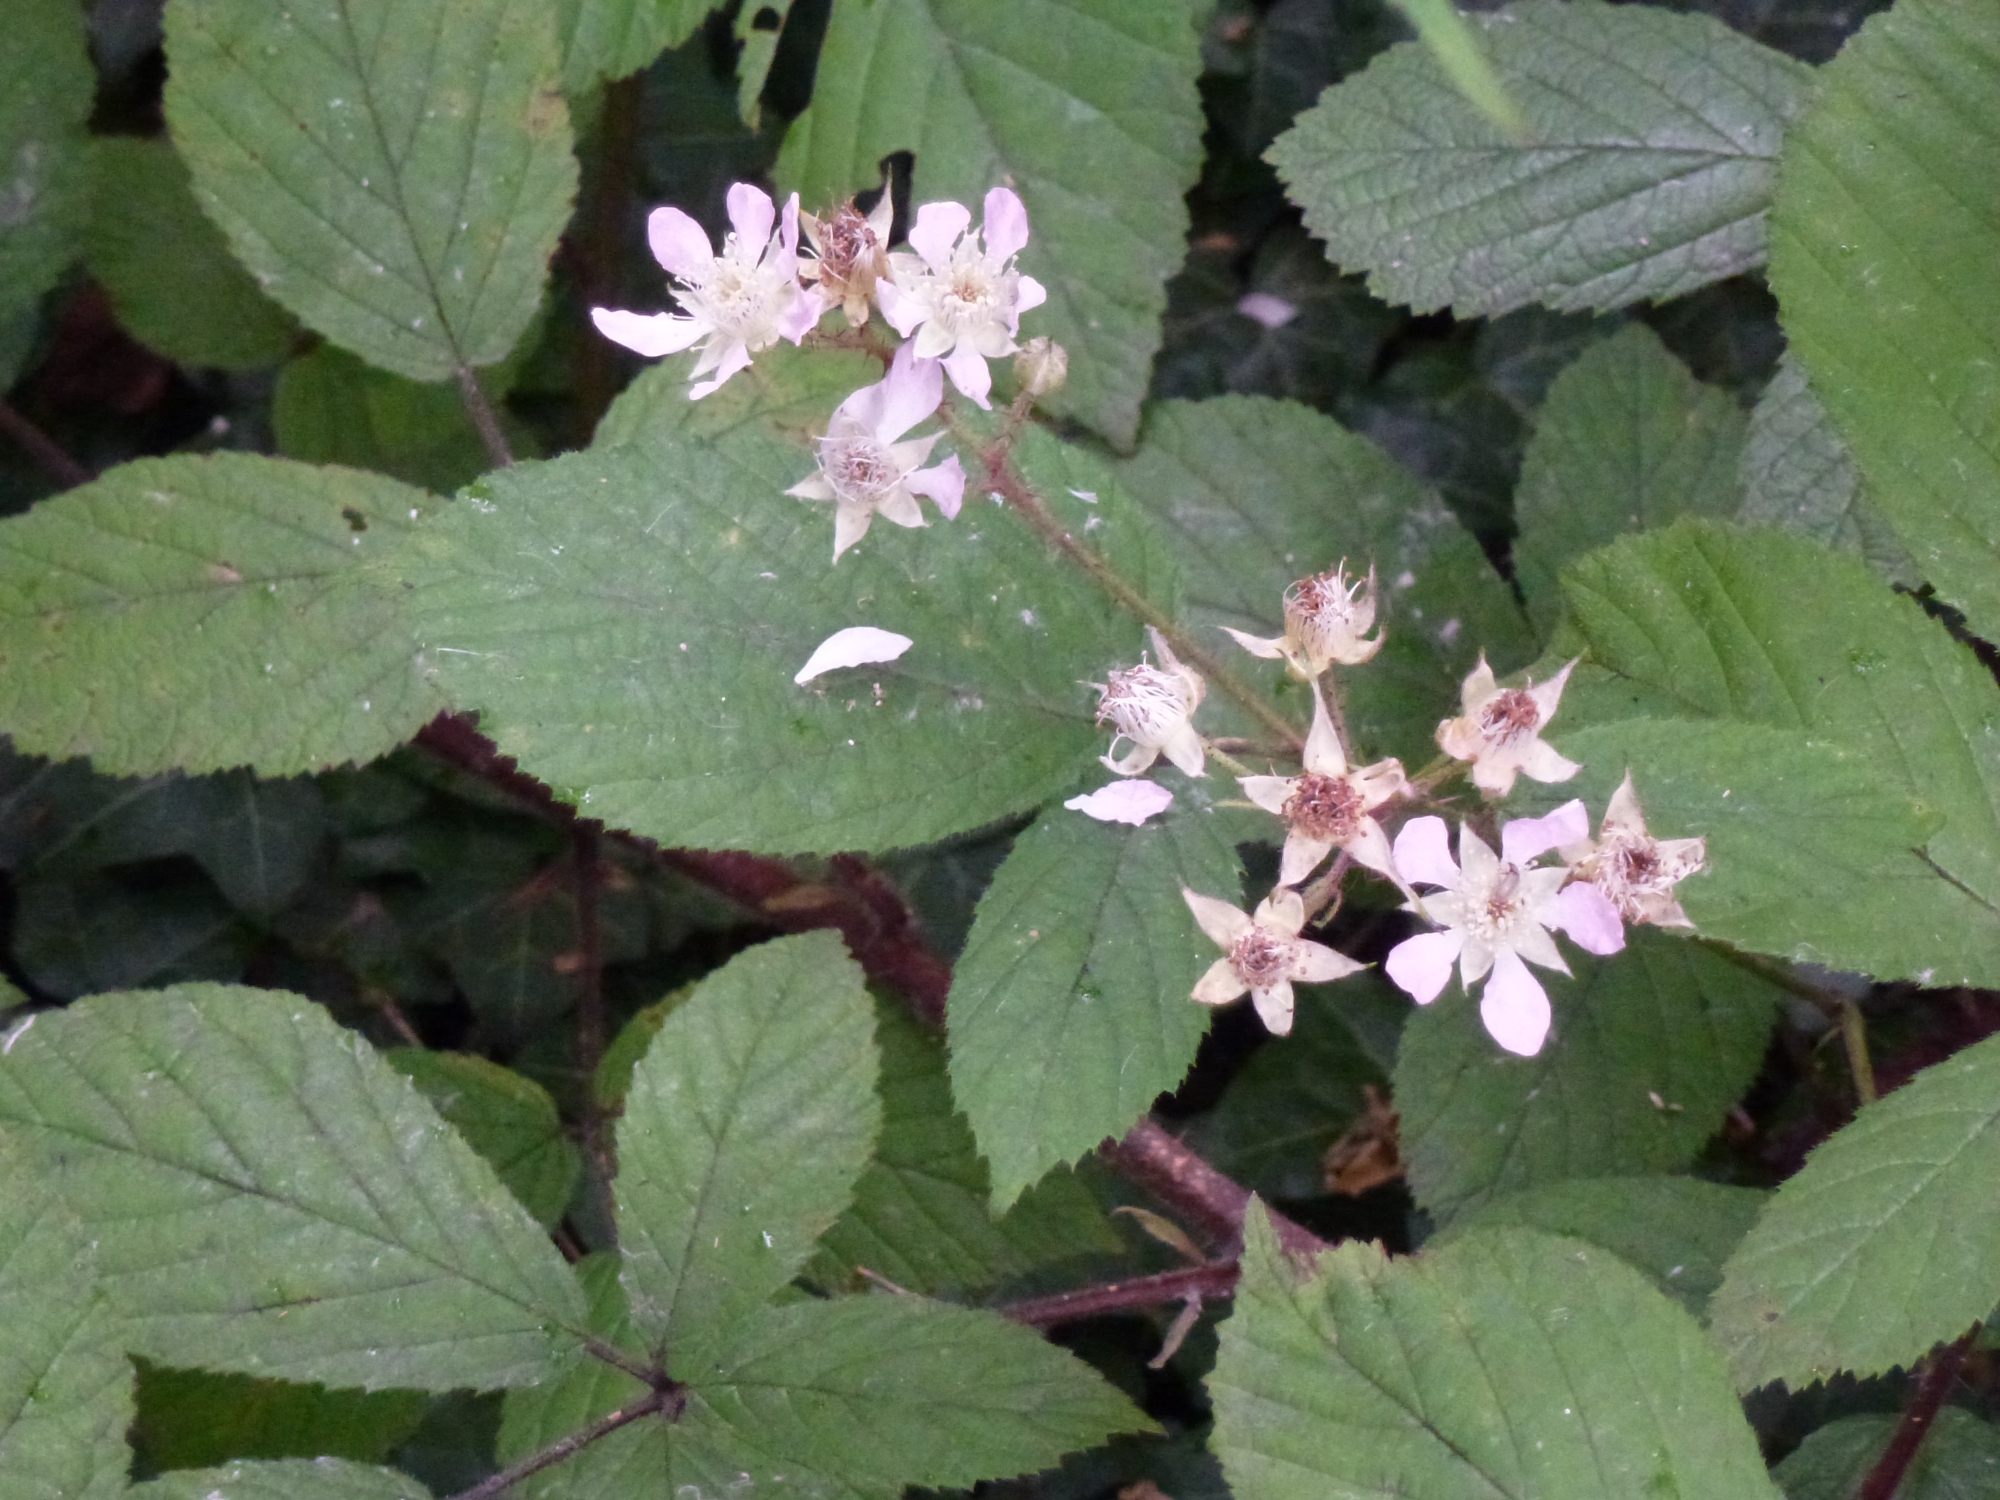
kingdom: Plantae
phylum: Tracheophyta
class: Magnoliopsida
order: Rosales
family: Rosaceae
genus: Rubus
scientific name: Rubus rufescens
